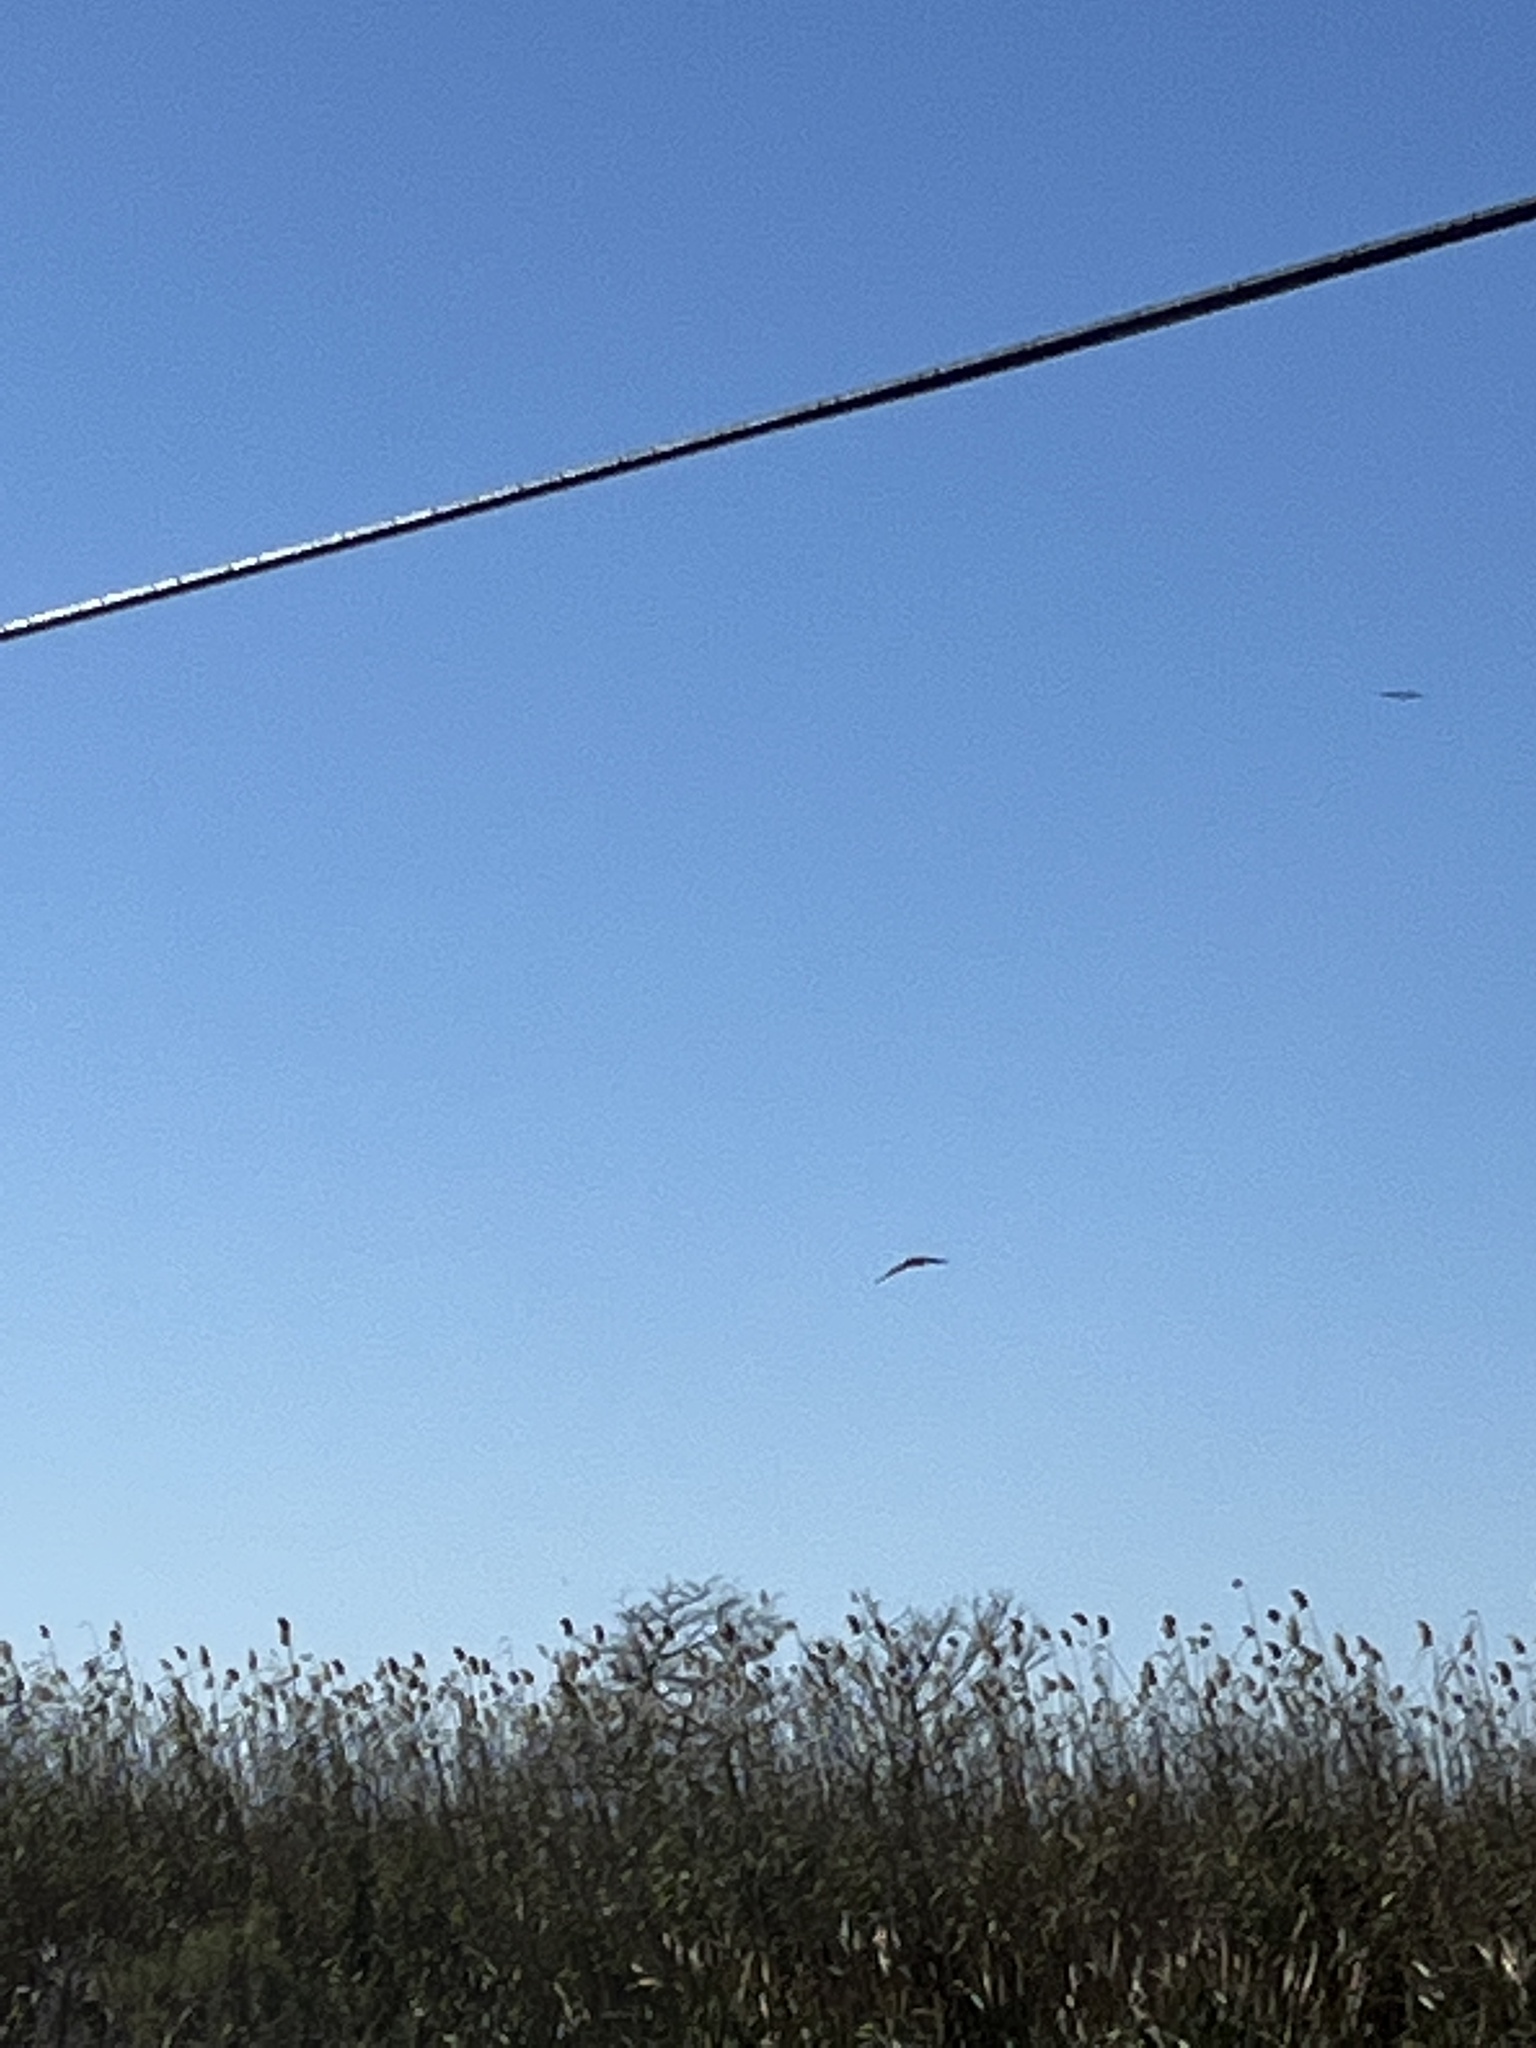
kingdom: Animalia
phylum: Chordata
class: Aves
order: Accipitriformes
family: Pandionidae
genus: Pandion
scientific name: Pandion haliaetus
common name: Osprey
